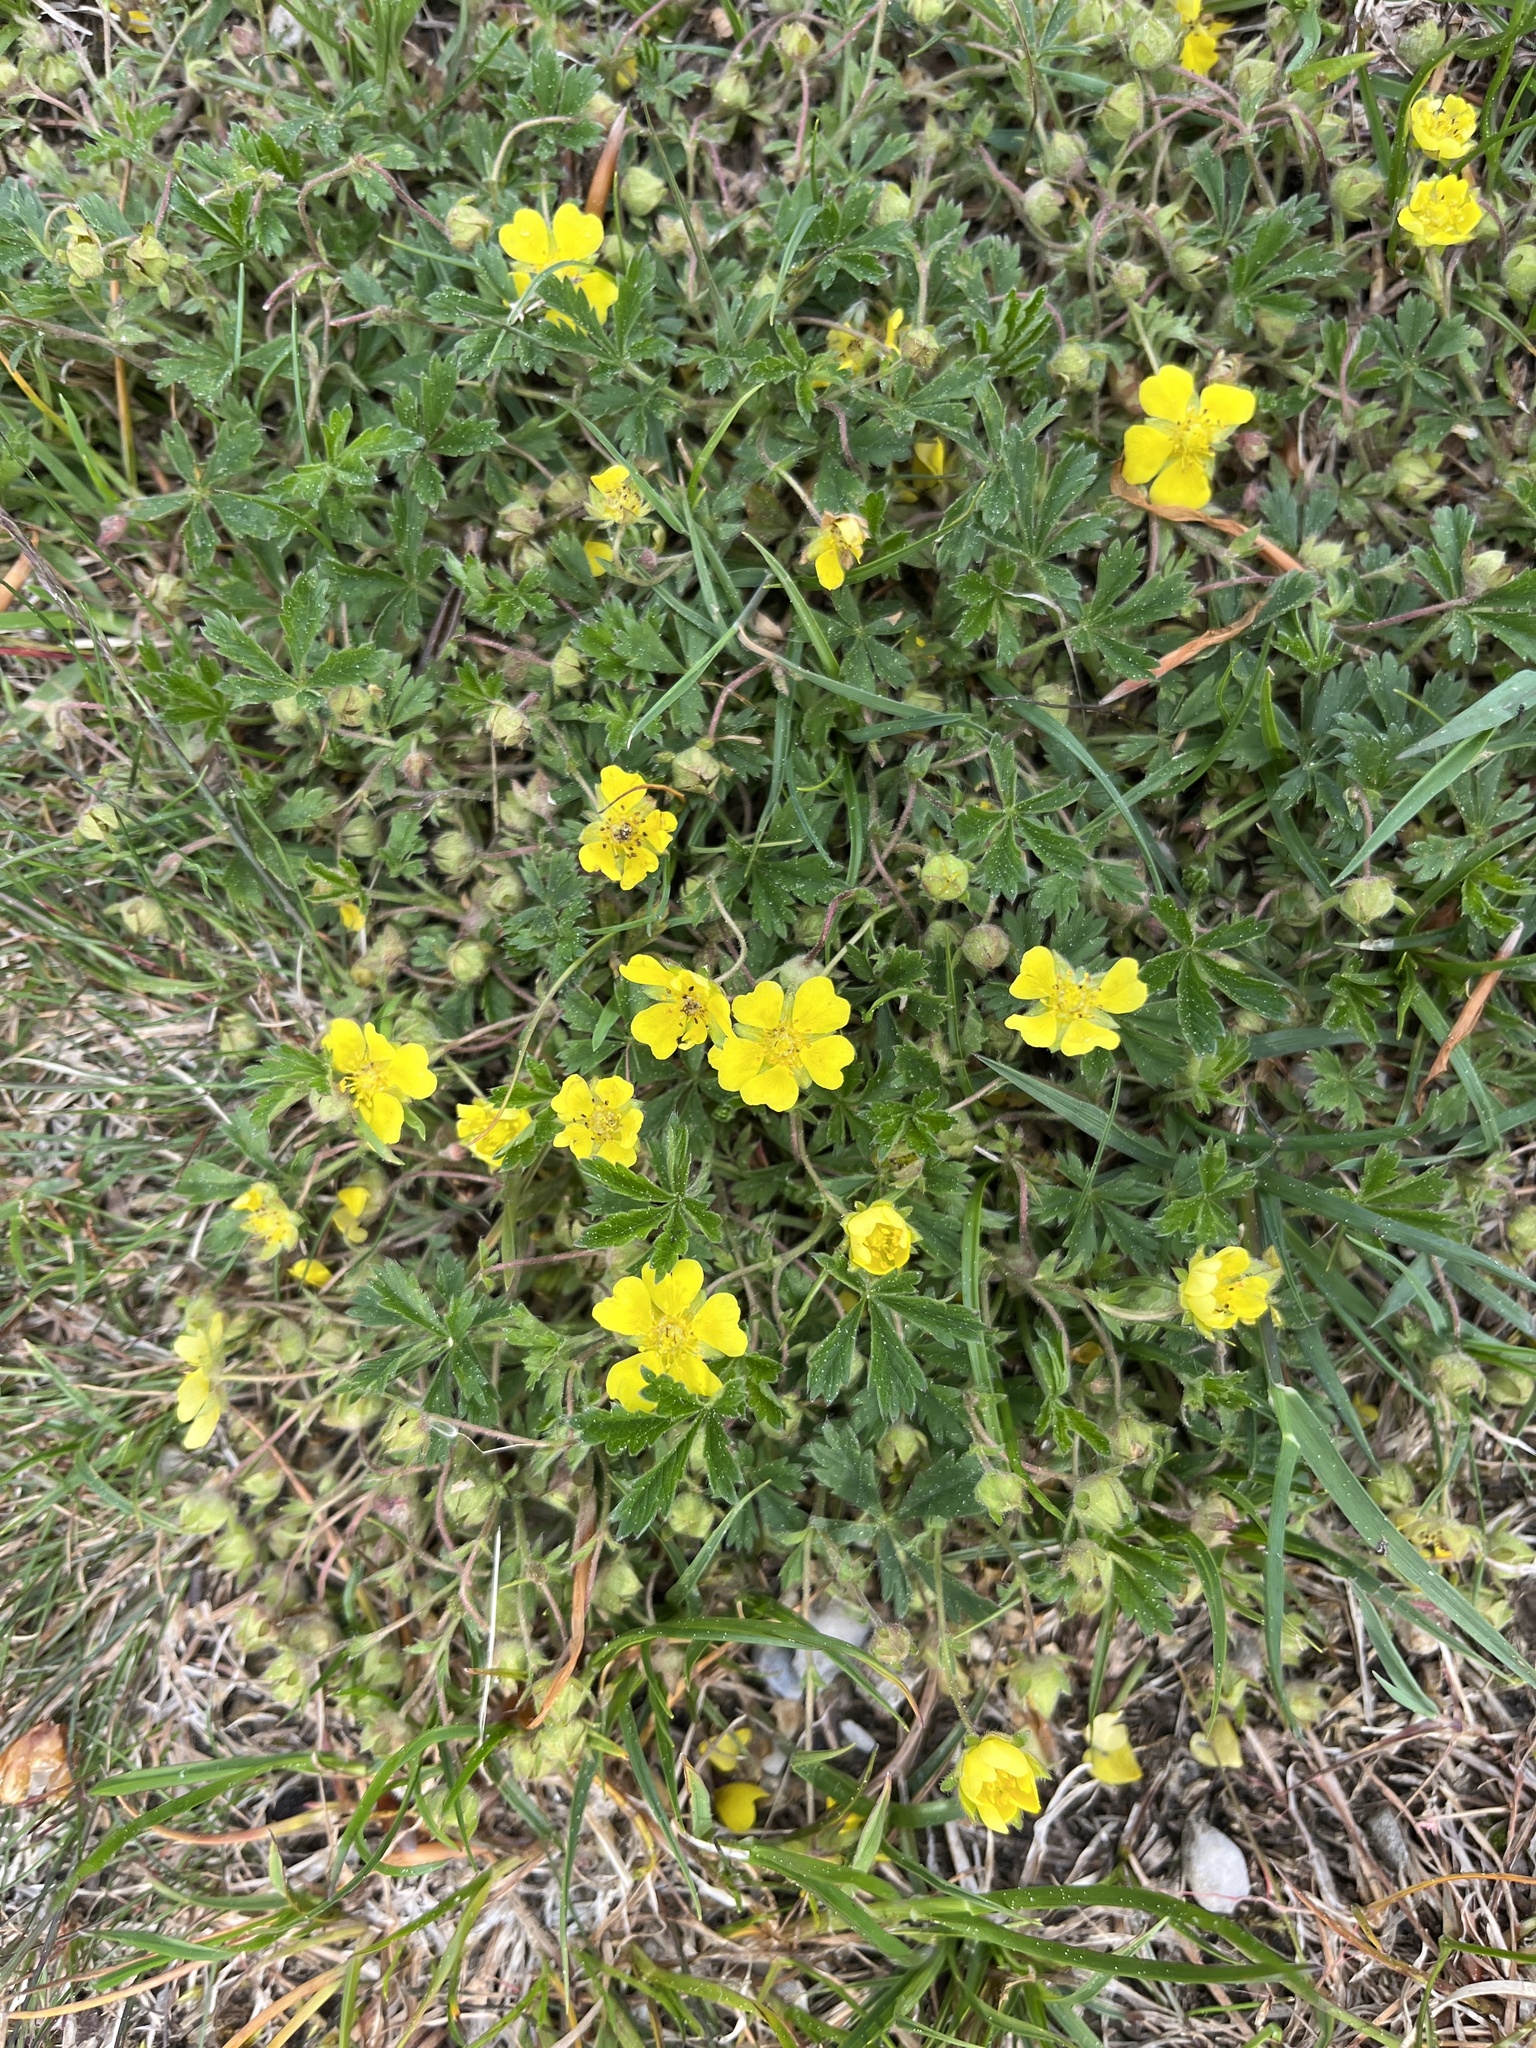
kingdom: Plantae
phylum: Tracheophyta
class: Magnoliopsida
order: Rosales
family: Rosaceae
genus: Potentilla
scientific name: Potentilla heptaphylla
